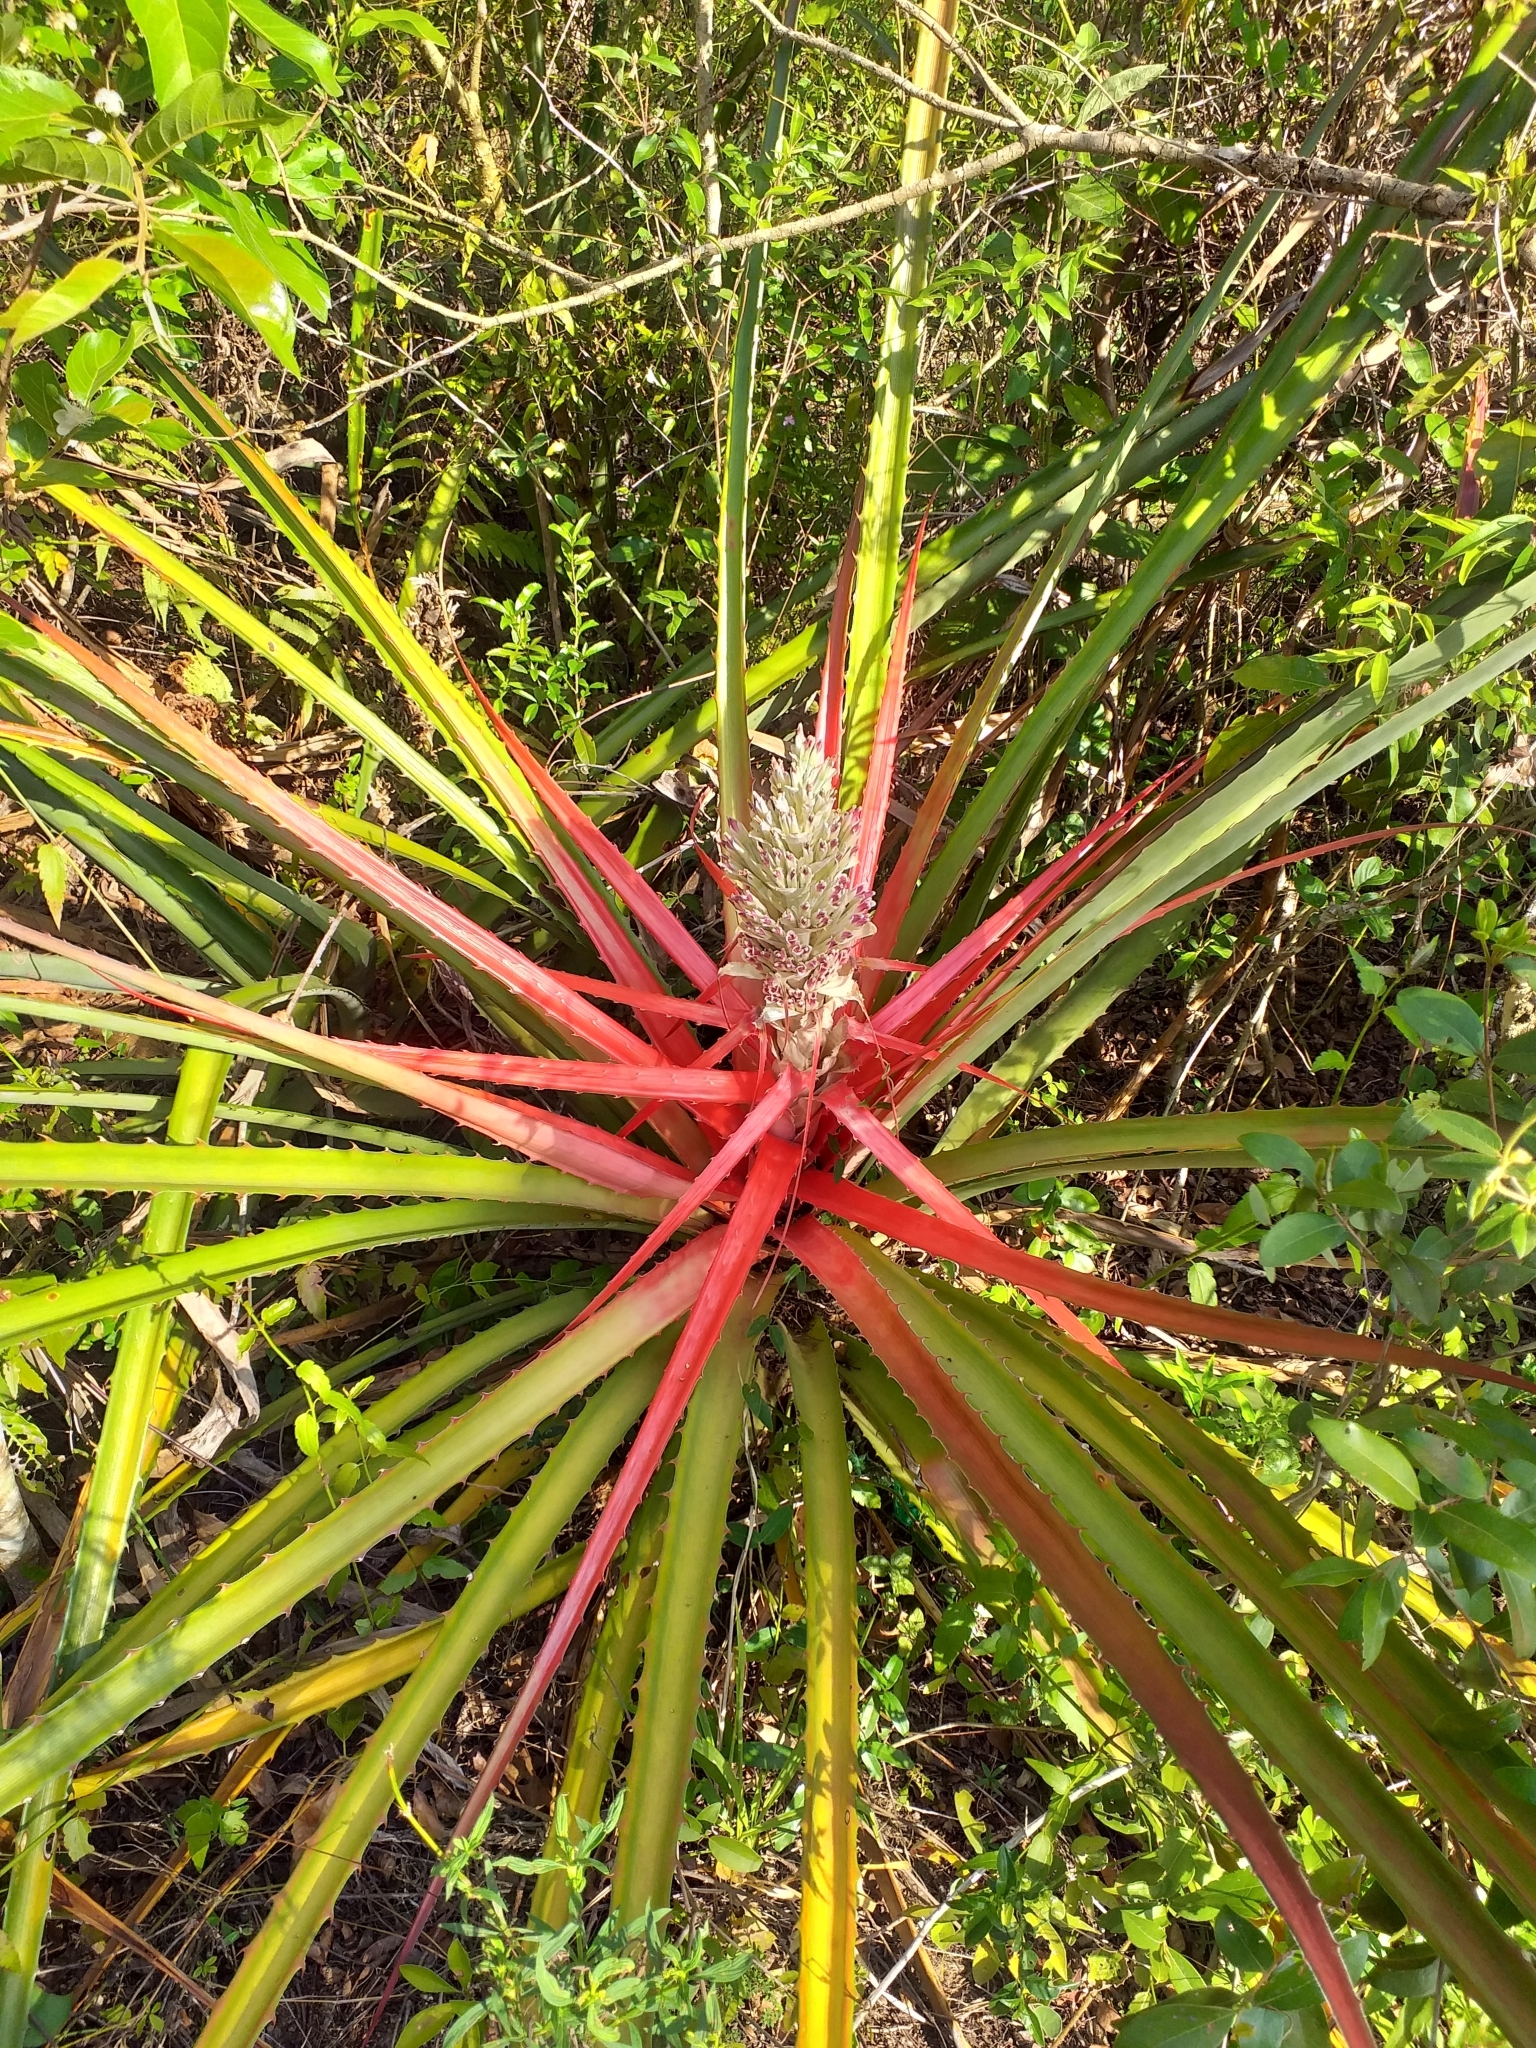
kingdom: Plantae
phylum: Tracheophyta
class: Liliopsida
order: Poales
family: Bromeliaceae
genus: Bromelia
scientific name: Bromelia balansae
